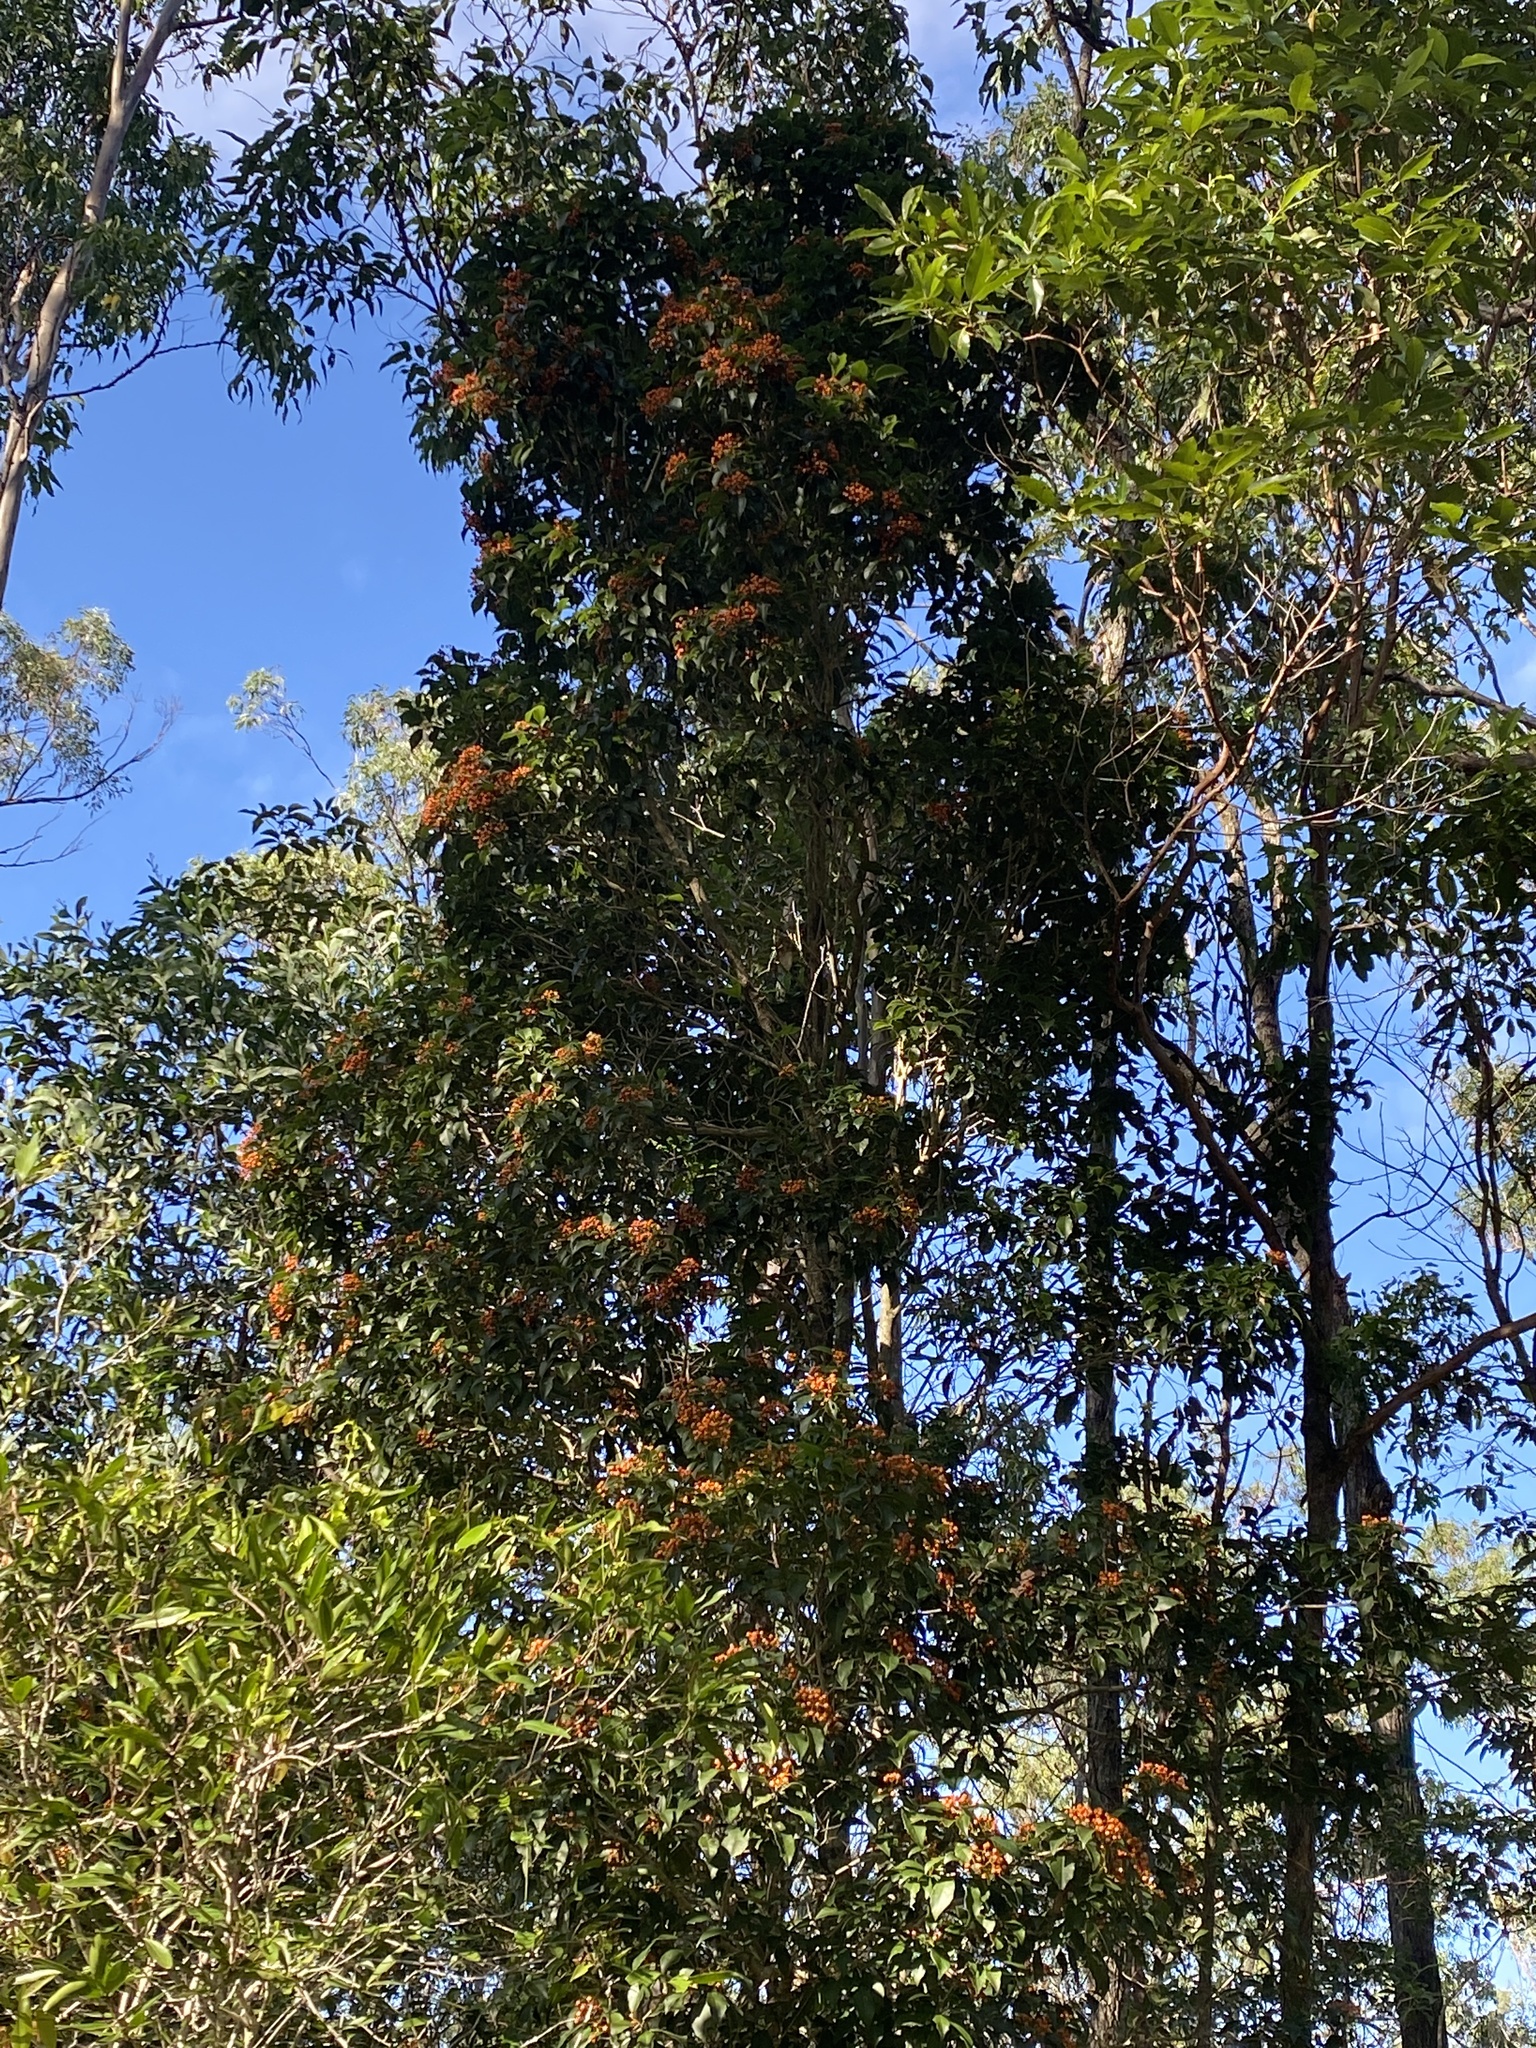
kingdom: Plantae
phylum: Tracheophyta
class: Magnoliopsida
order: Apiales
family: Pittosporaceae
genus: Auranticarpa
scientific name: Auranticarpa rhombifolia
